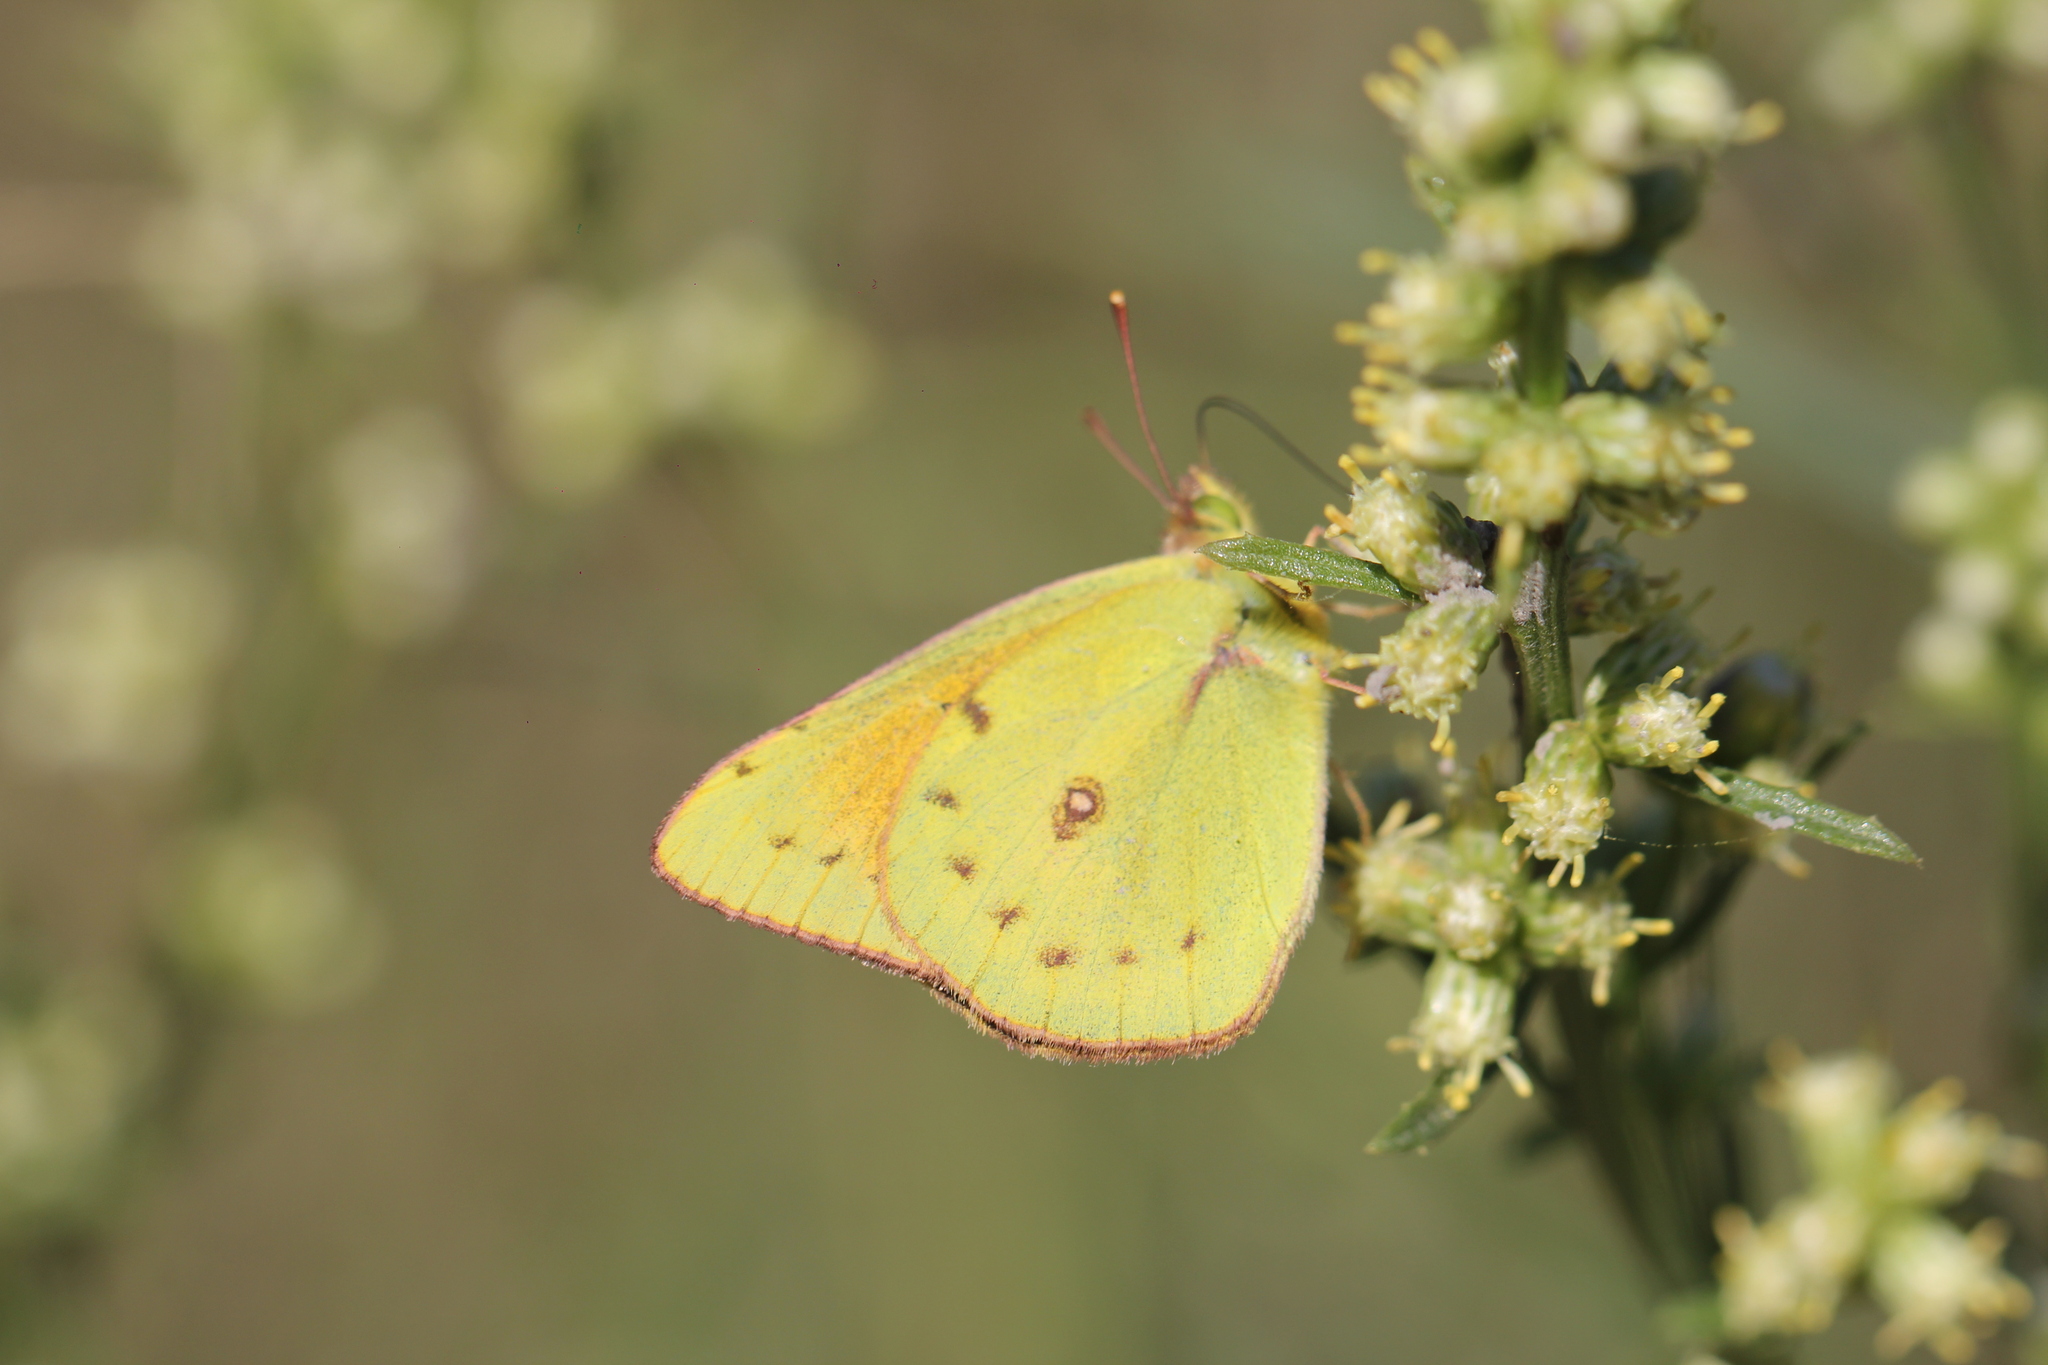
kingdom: Animalia
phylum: Arthropoda
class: Insecta
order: Lepidoptera
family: Pieridae
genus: Colias
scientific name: Colias lesbia
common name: Lesbia clouded yellow
